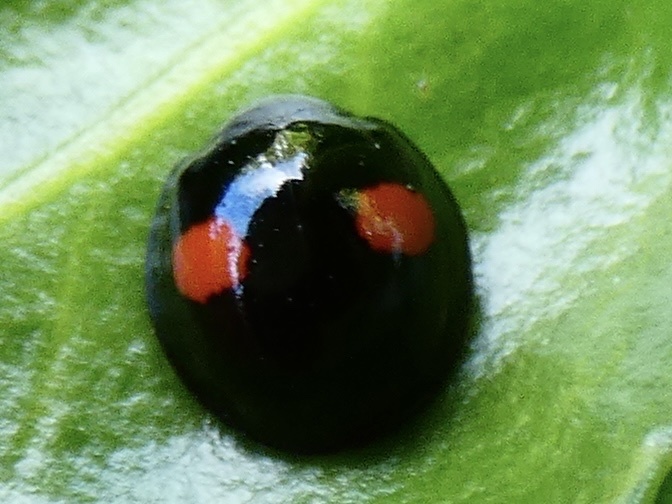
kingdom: Animalia
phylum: Arthropoda
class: Insecta
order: Coleoptera
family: Coccinellidae
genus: Chilocorus
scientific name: Chilocorus renipustulatus
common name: Kidney-spot ladybird
